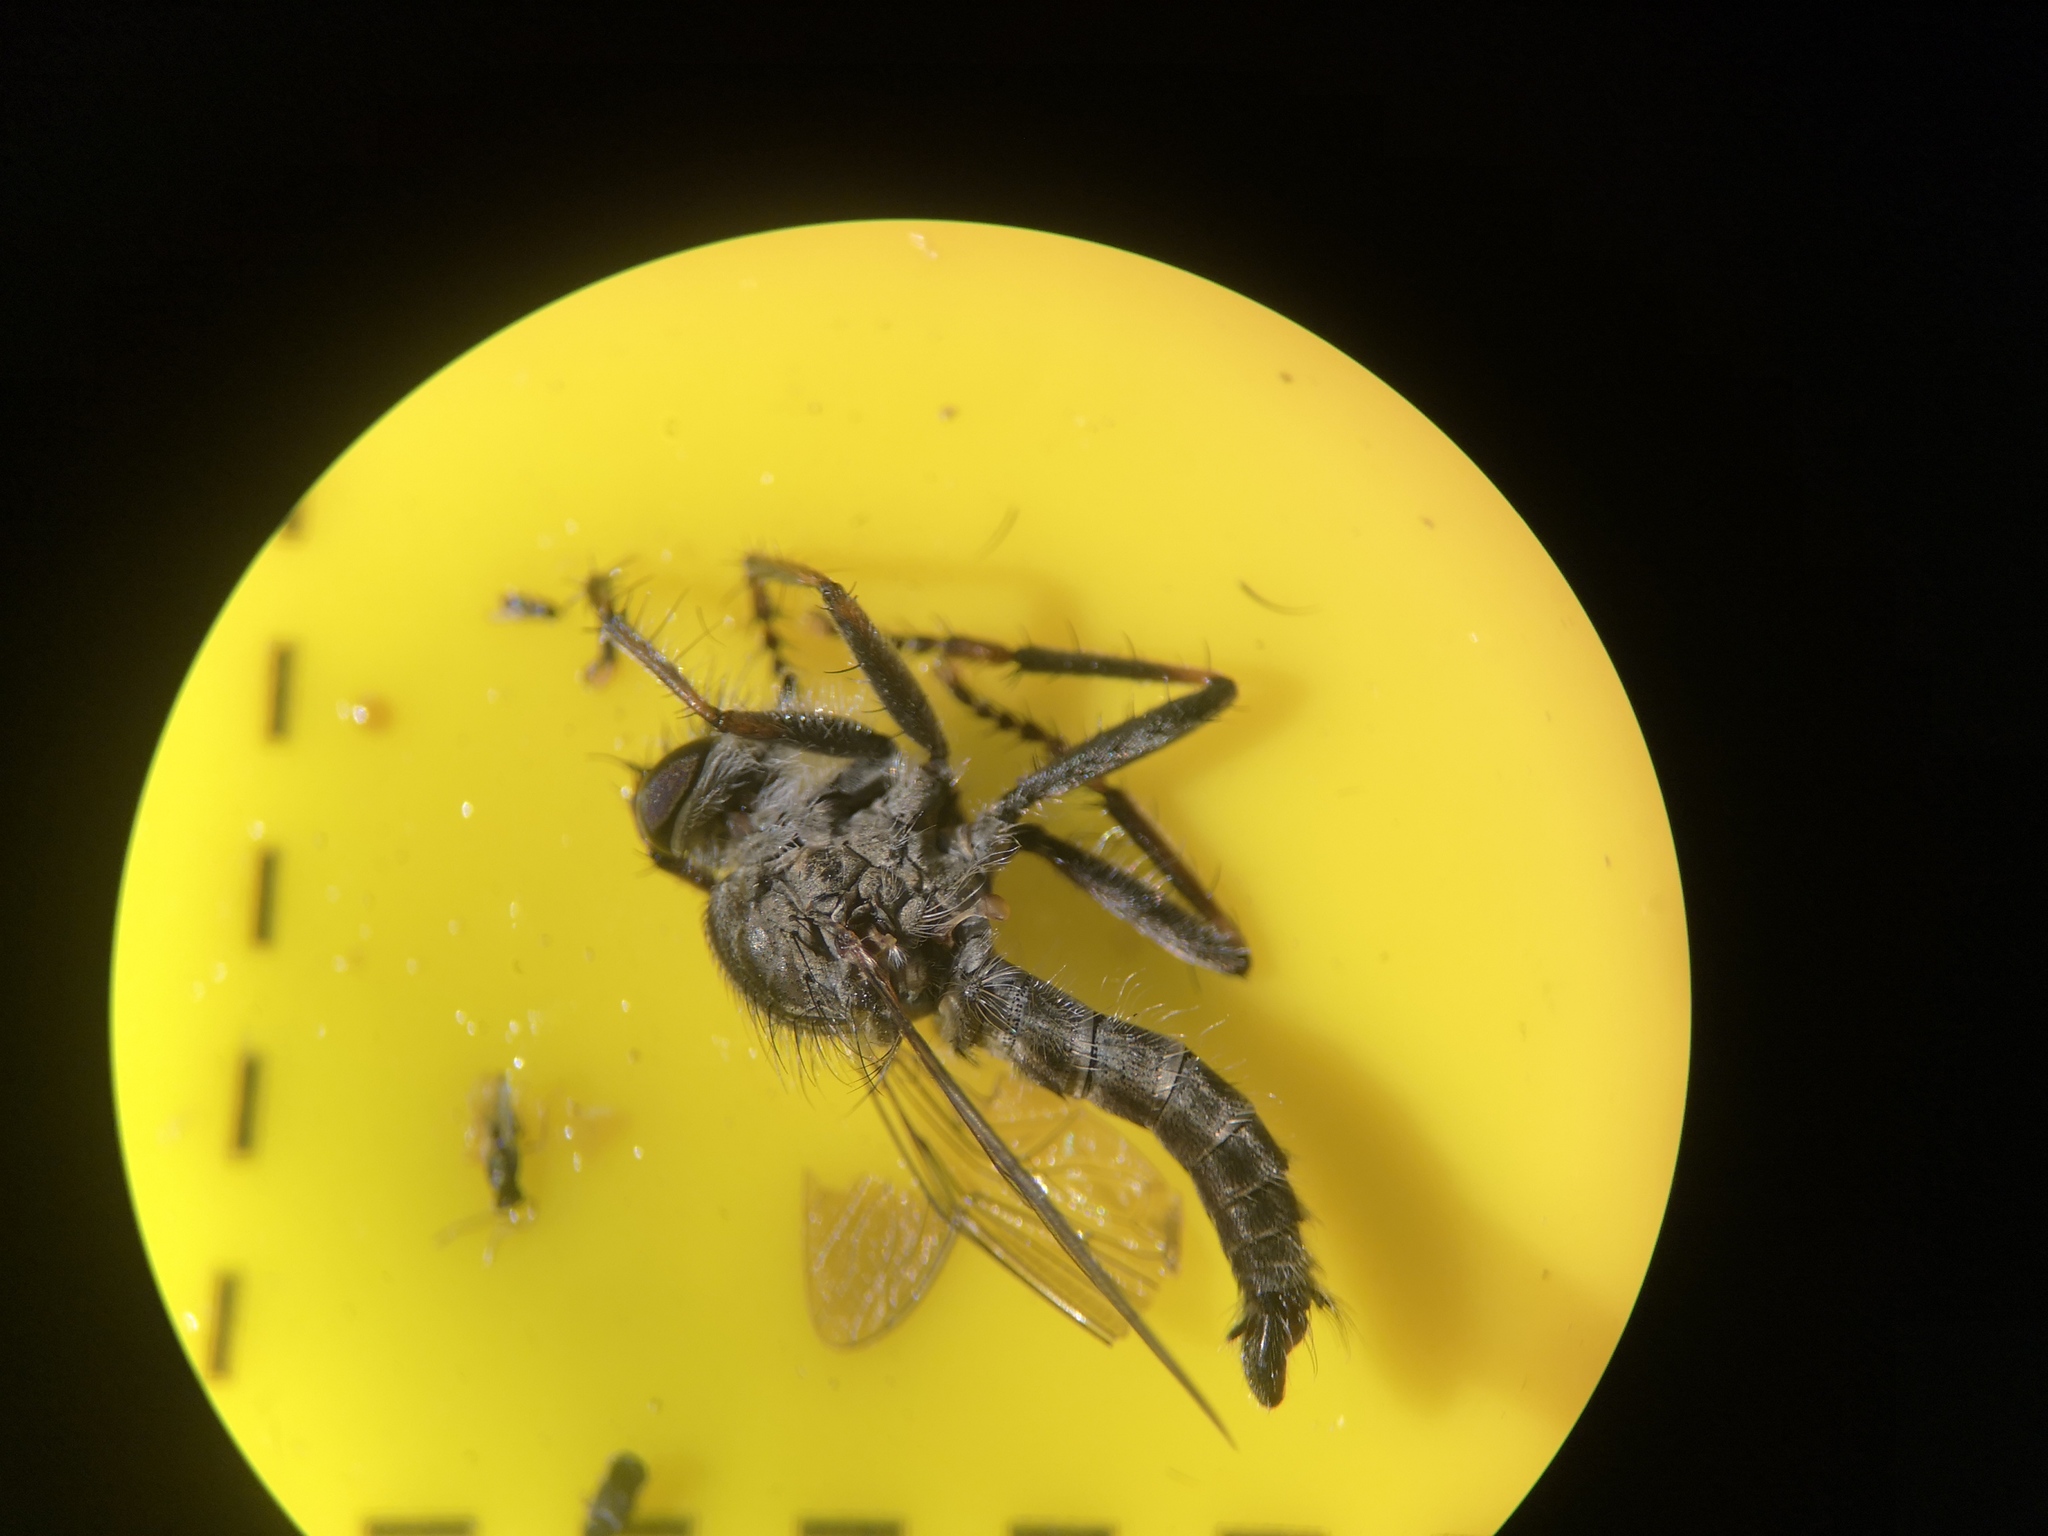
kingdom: Animalia
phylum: Arthropoda
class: Insecta
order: Diptera
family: Asilidae
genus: Machimus
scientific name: Machimus atricapillus
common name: Kite-tailed robberfly
